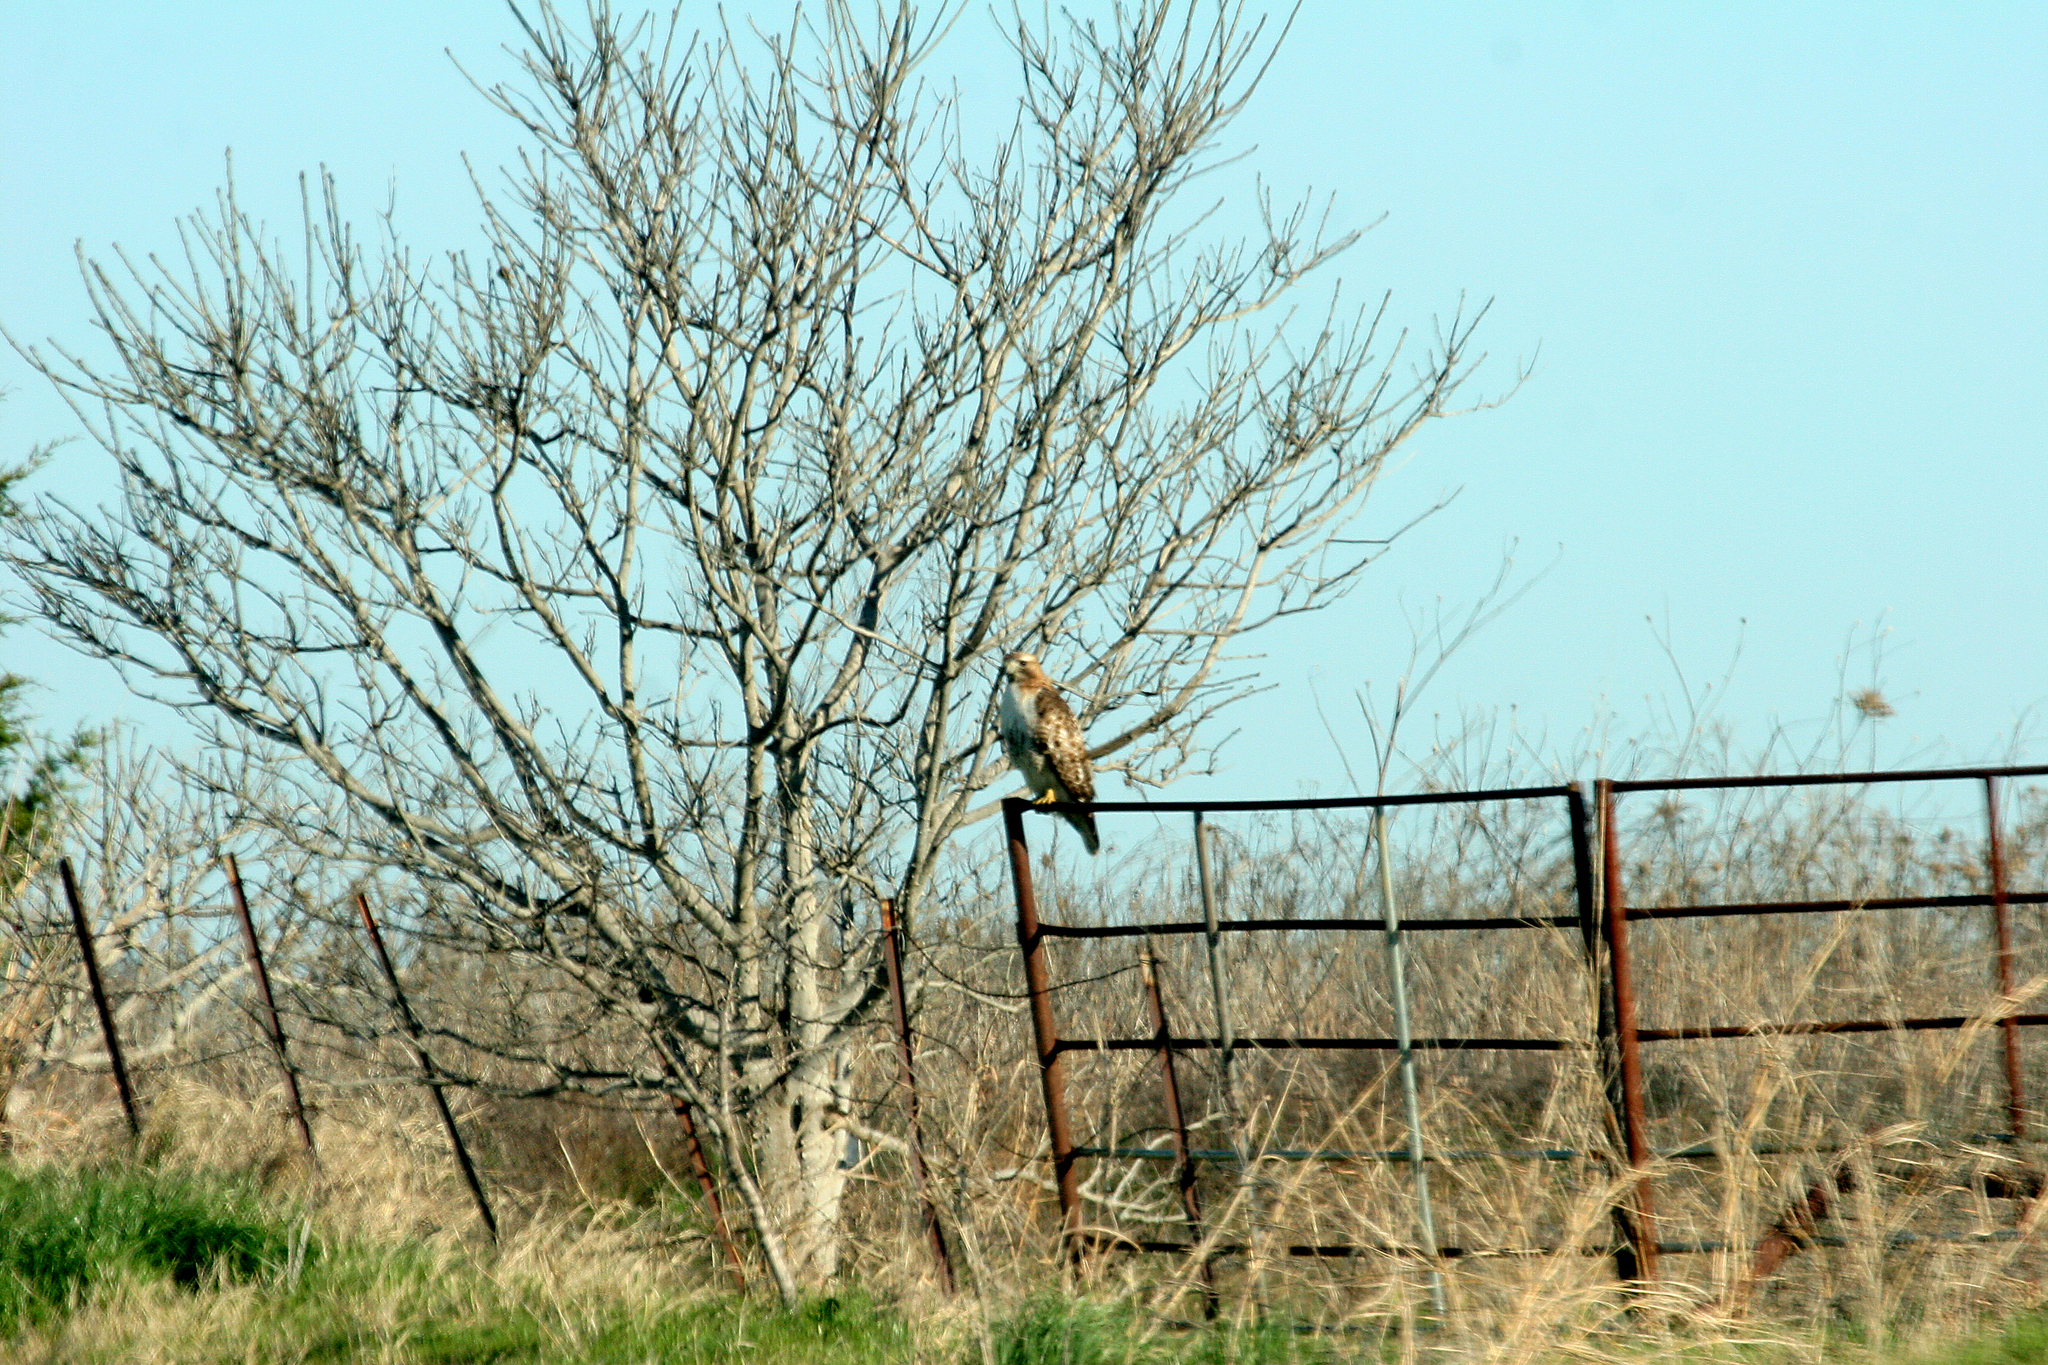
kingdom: Animalia
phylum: Chordata
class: Aves
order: Accipitriformes
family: Accipitridae
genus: Buteo
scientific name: Buteo jamaicensis
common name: Red-tailed hawk
